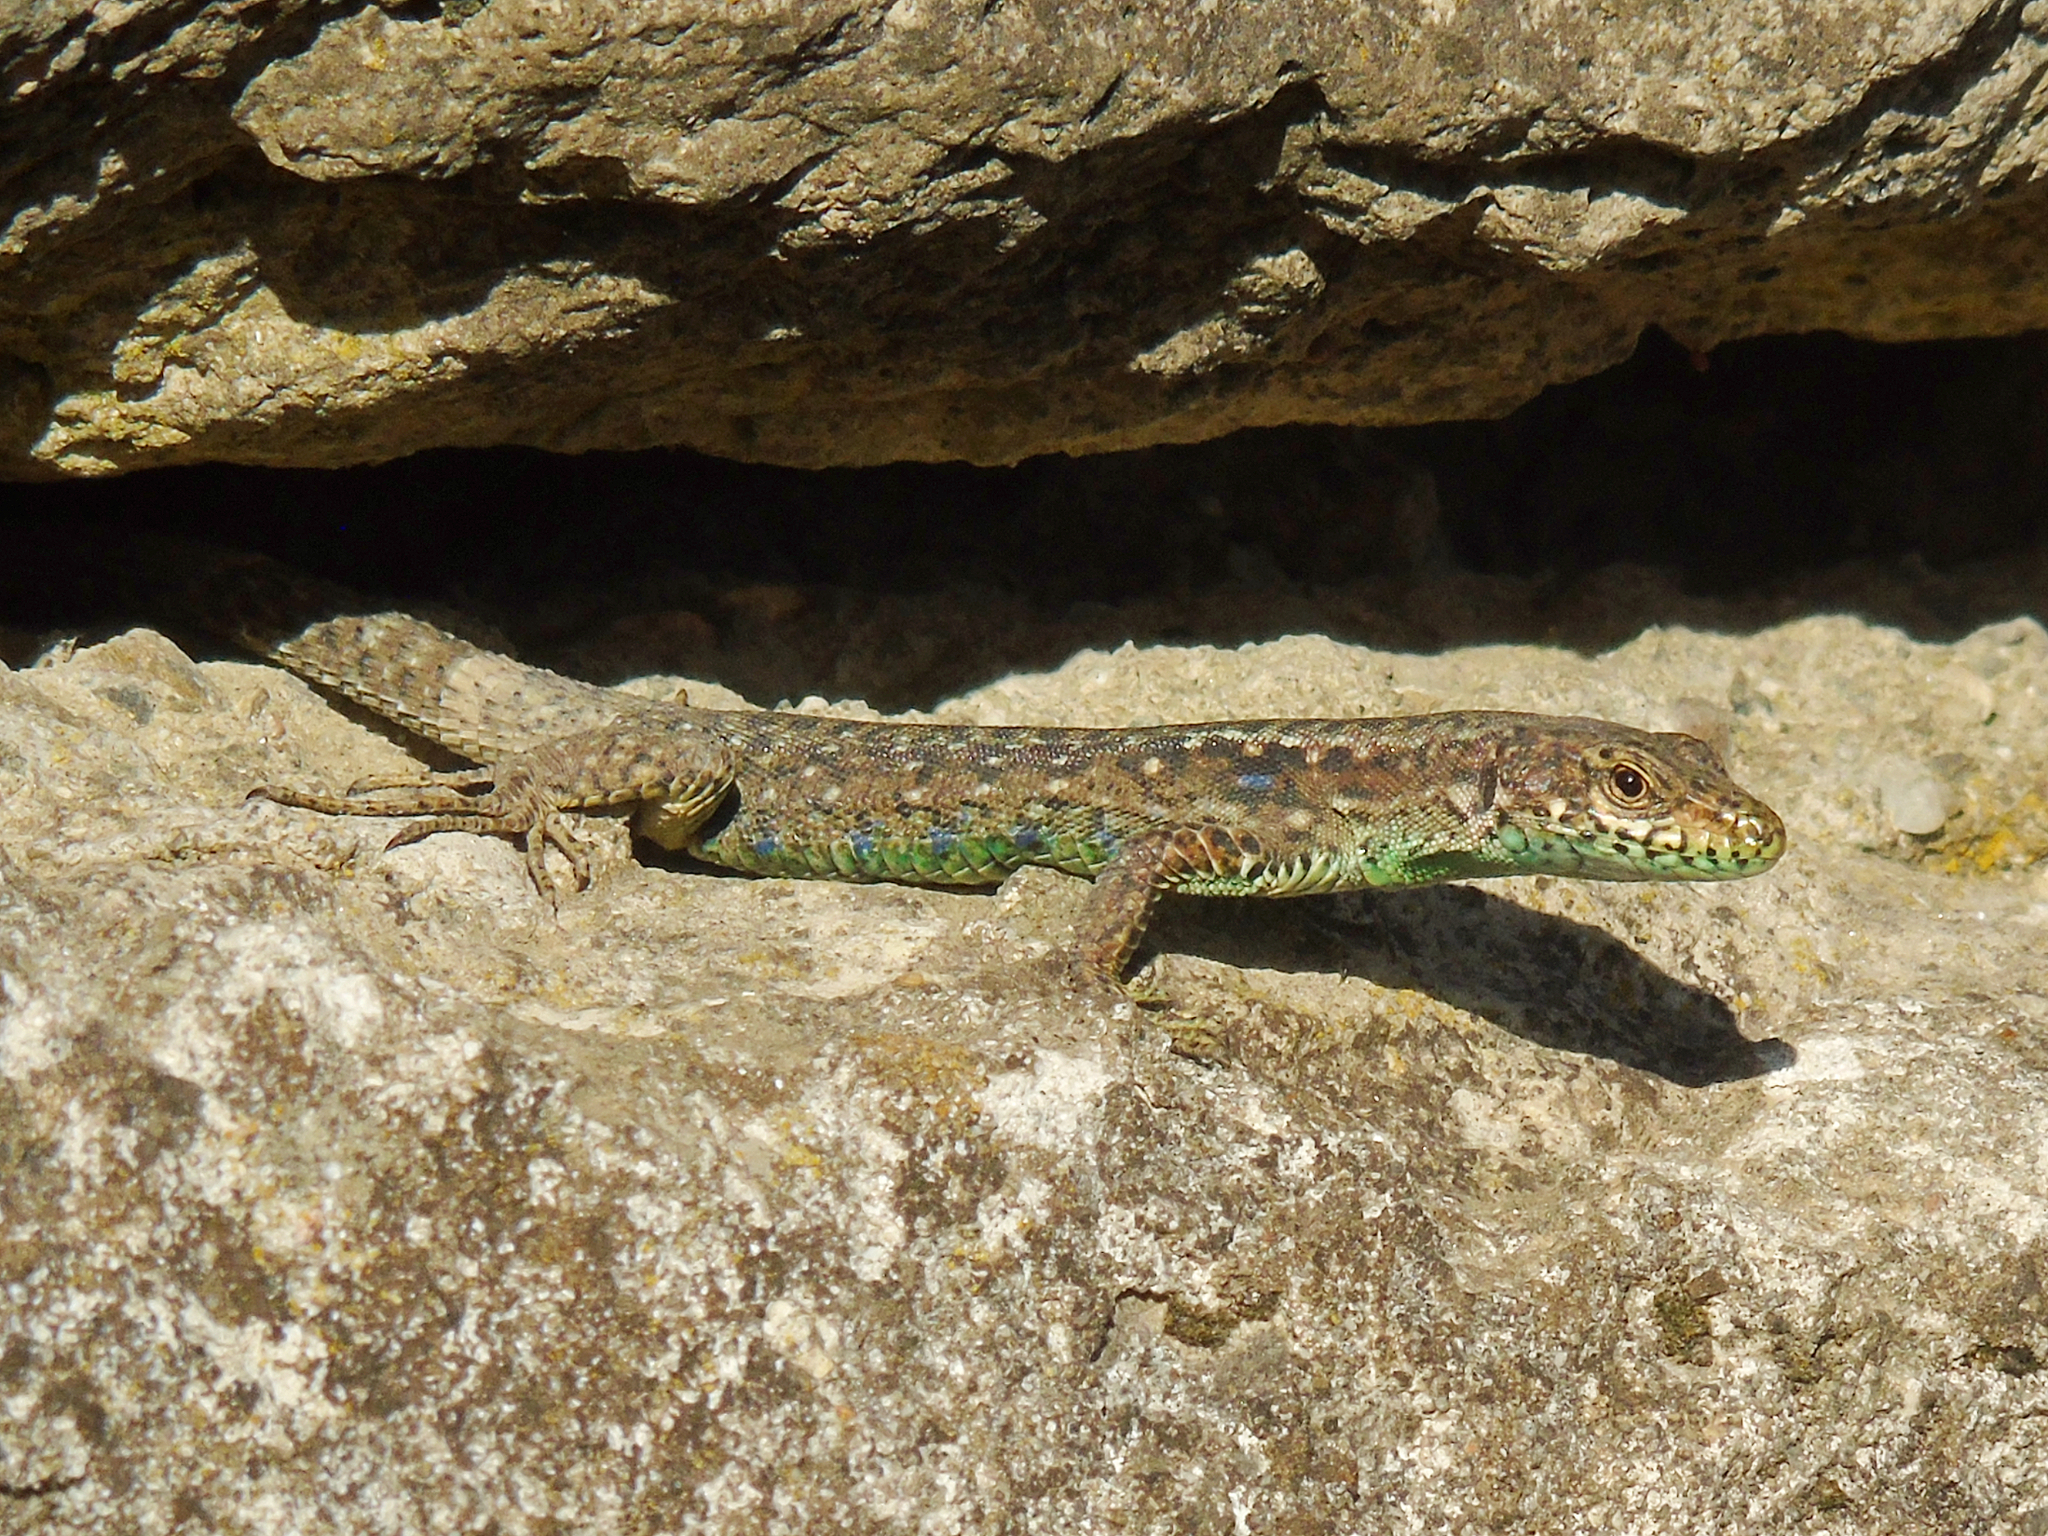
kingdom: Animalia
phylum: Chordata
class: Squamata
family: Lacertidae
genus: Darevskia
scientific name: Darevskia rudis
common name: Spiny-tailed lizard
